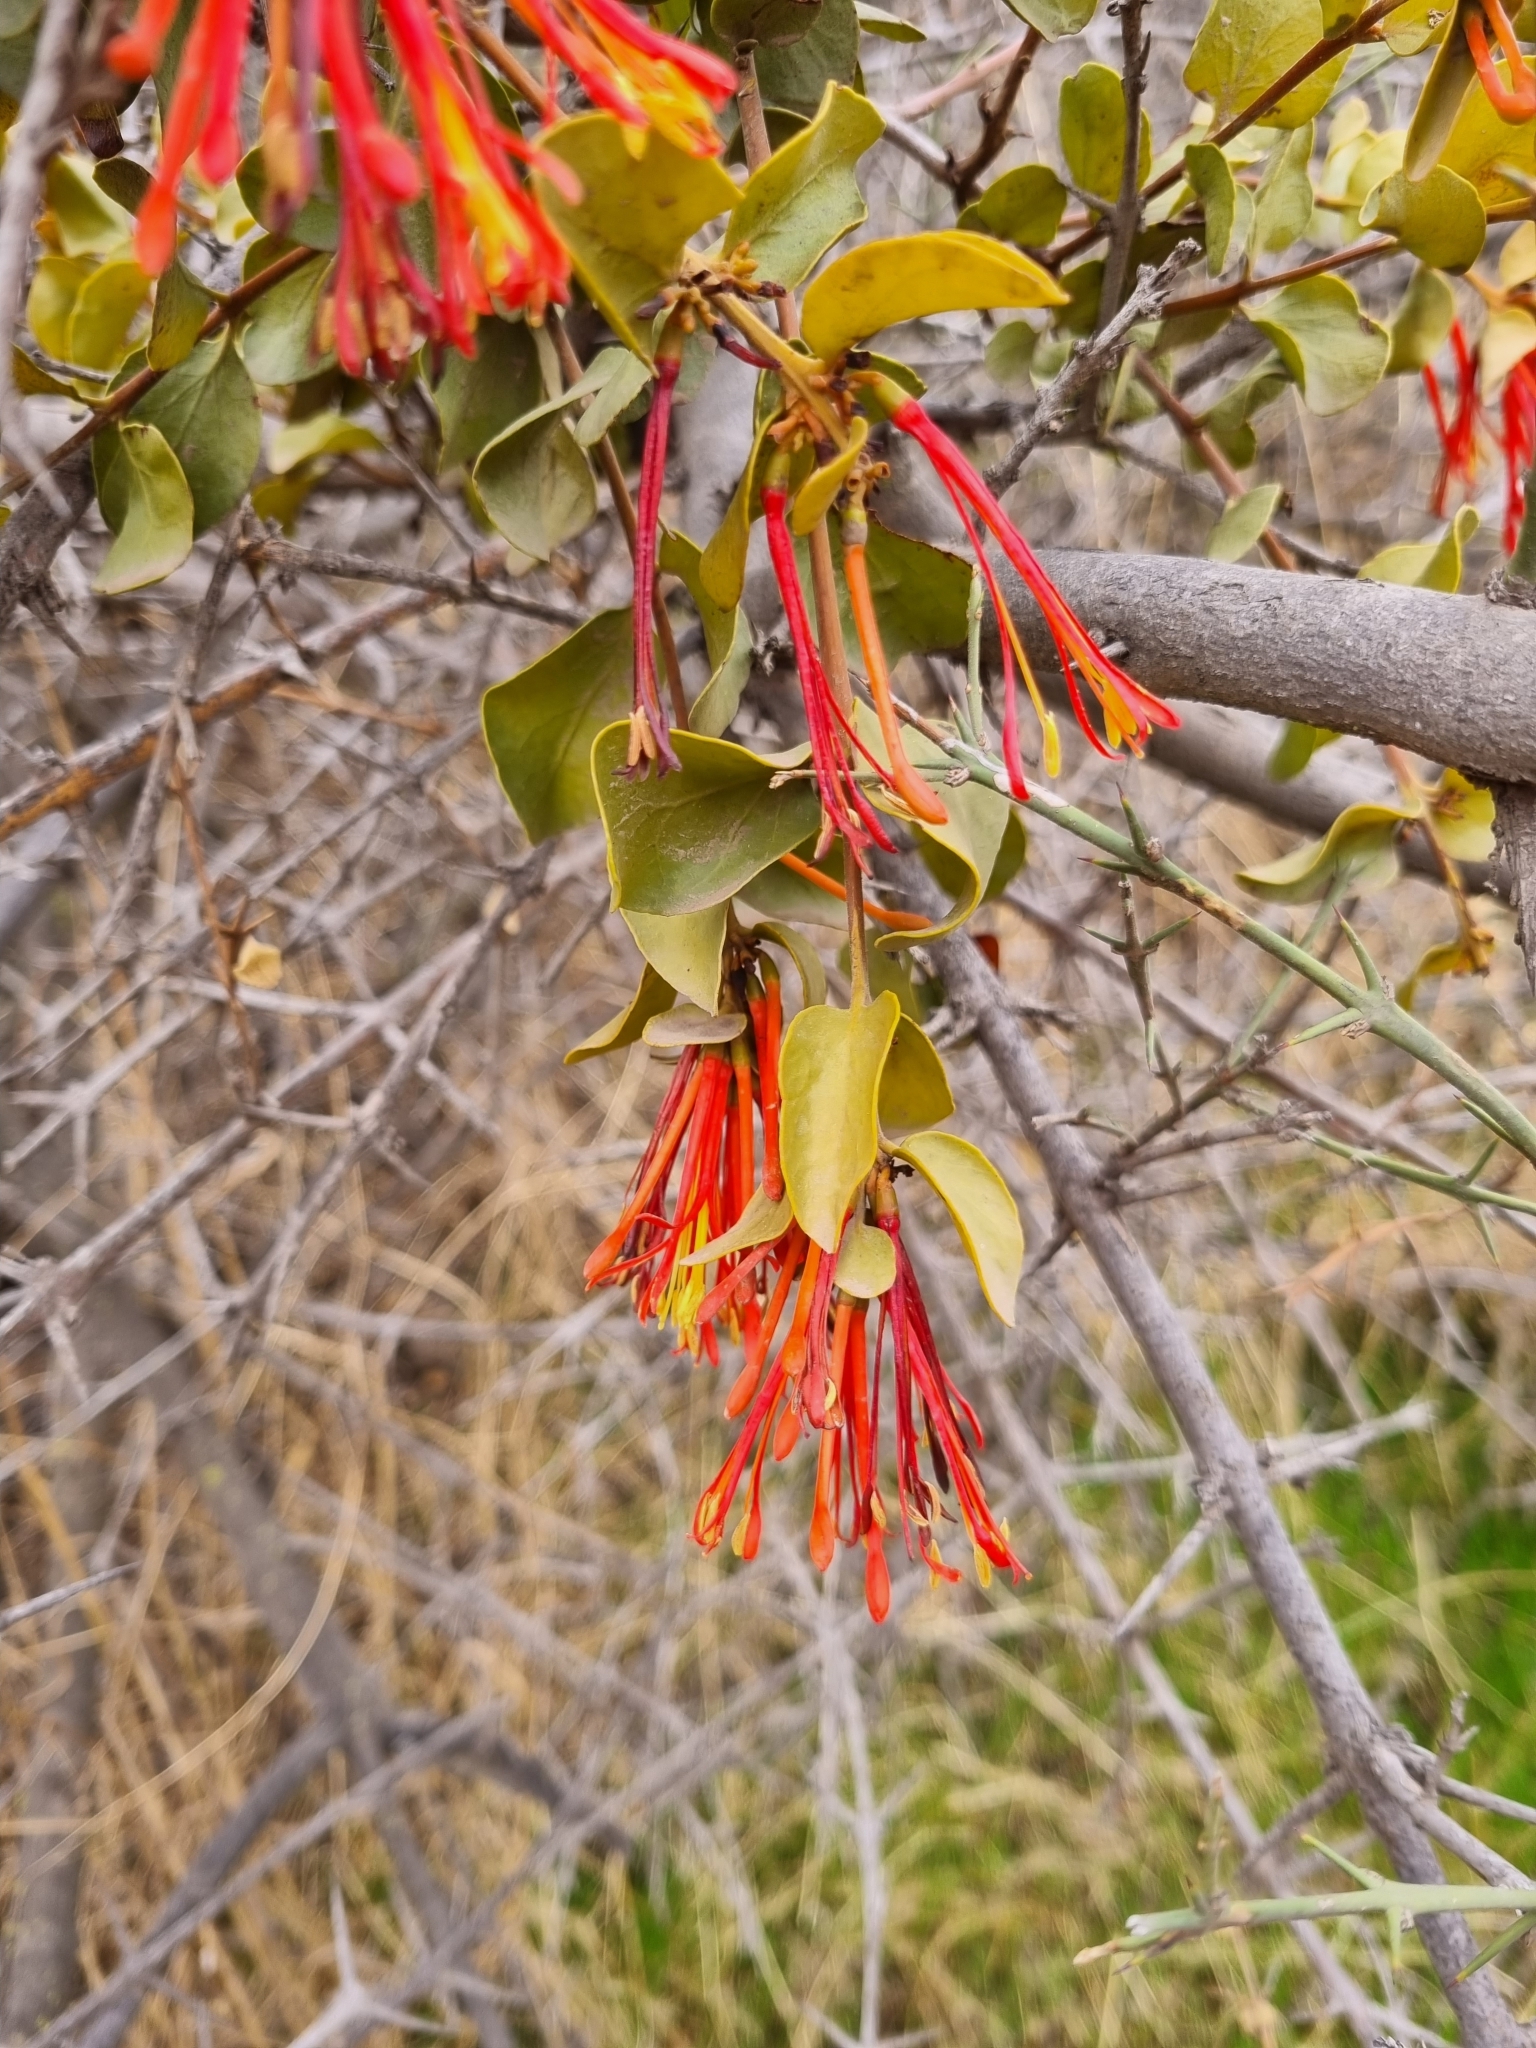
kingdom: Plantae
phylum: Tracheophyta
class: Magnoliopsida
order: Santalales
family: Loranthaceae
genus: Tristerix
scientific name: Tristerix corymbosus
